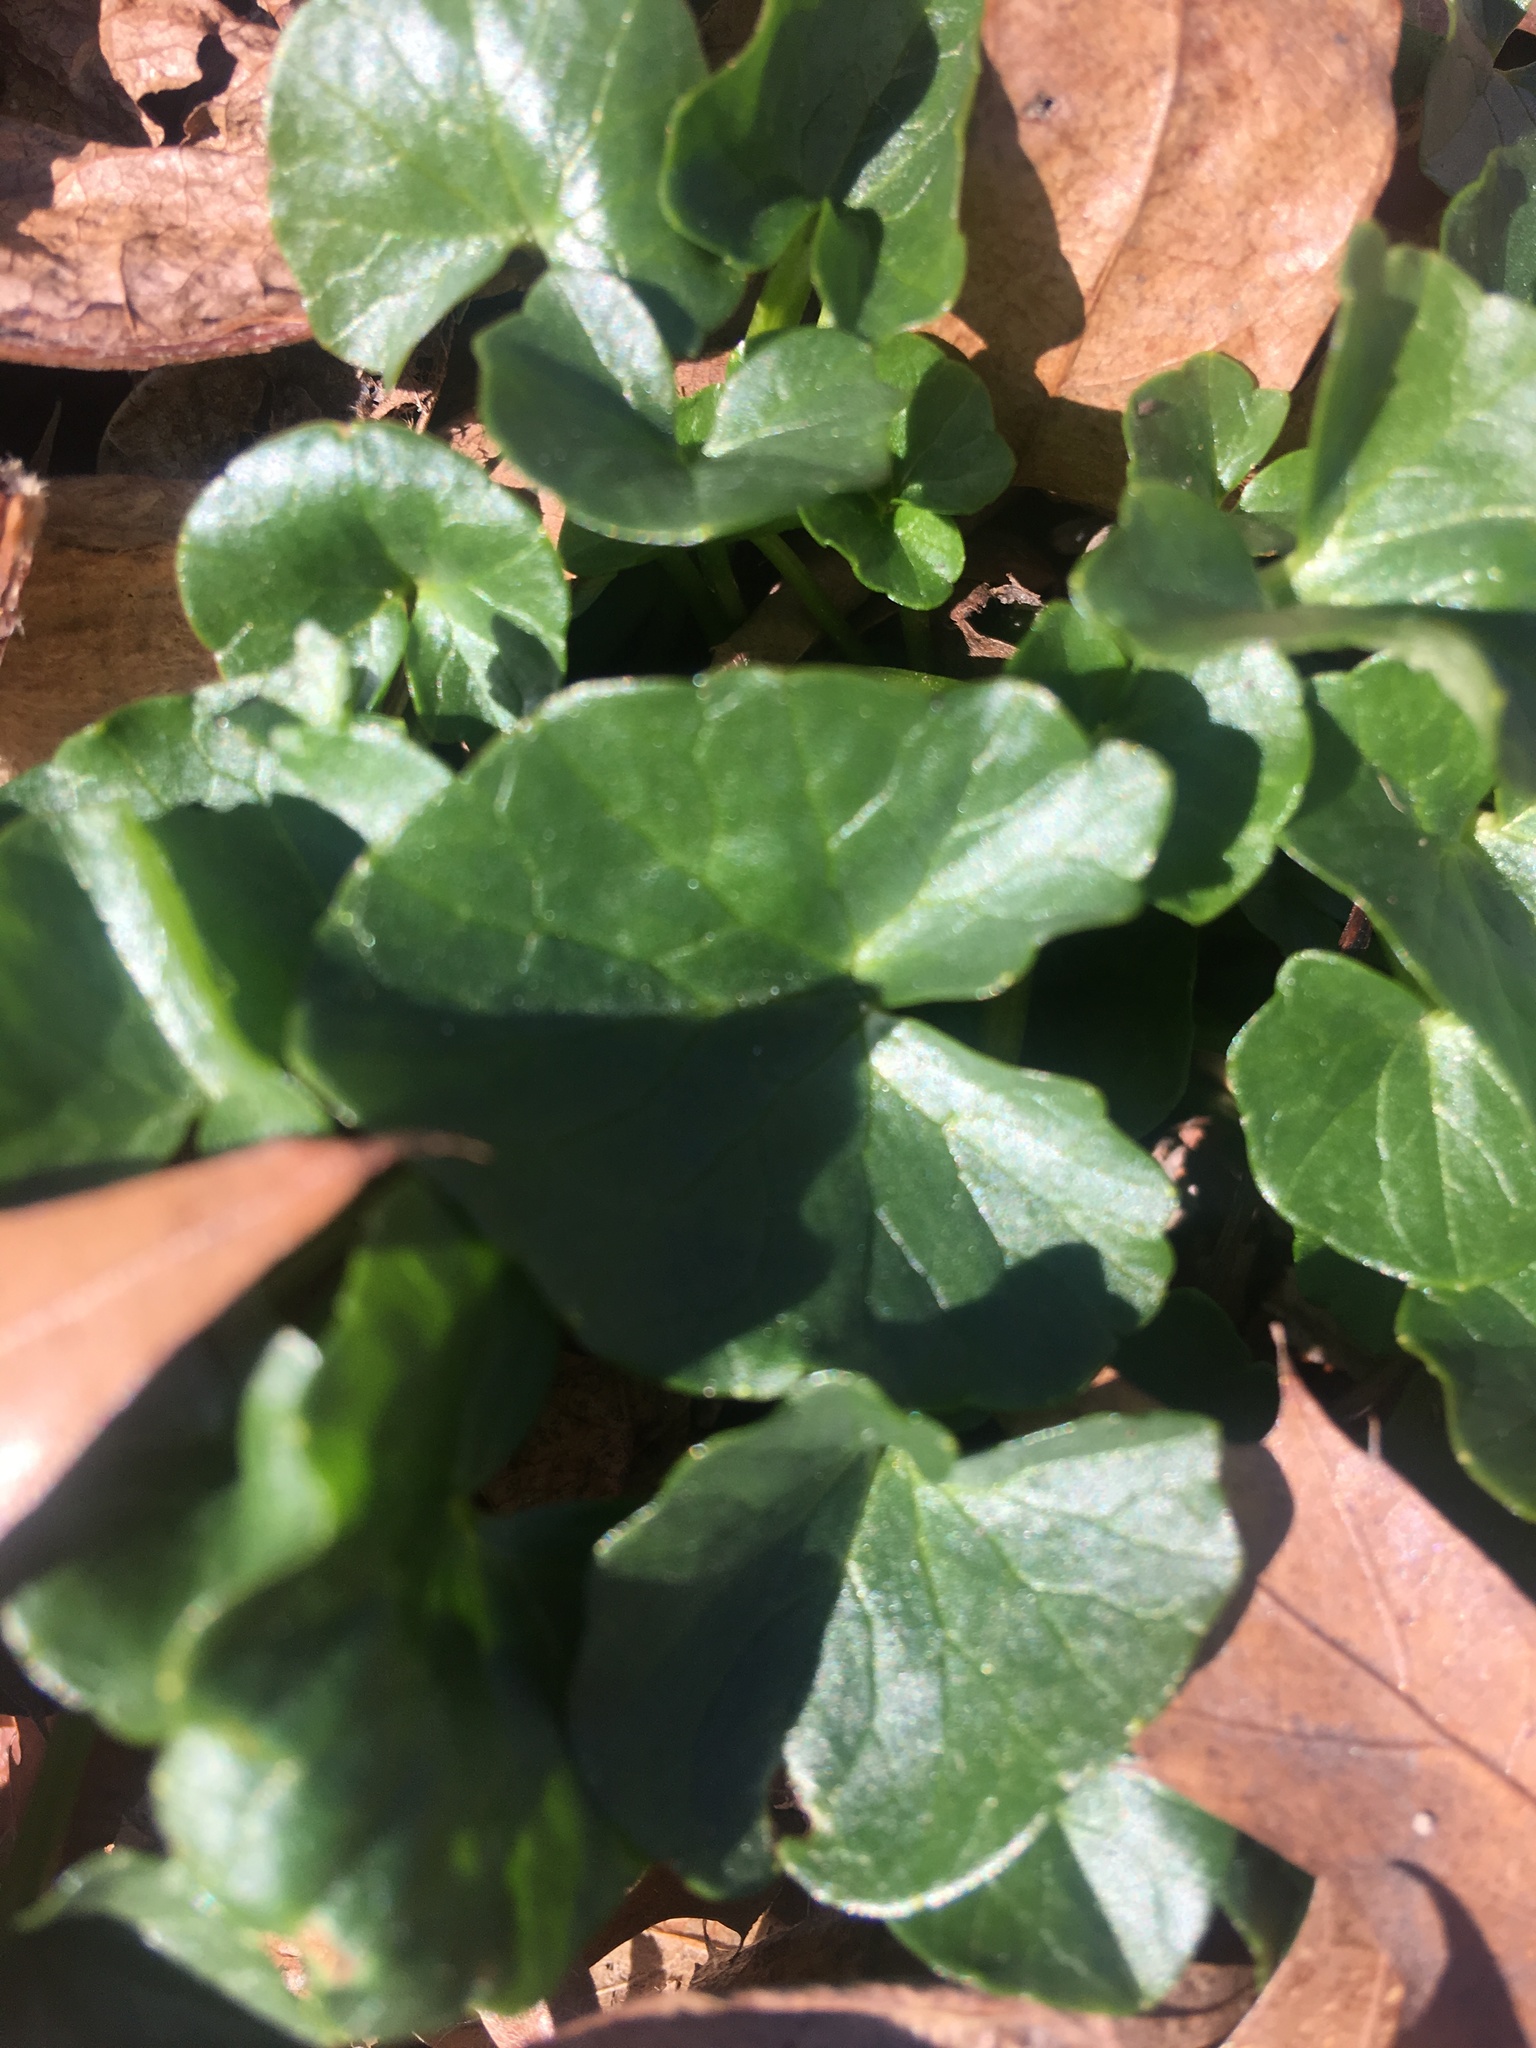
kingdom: Plantae
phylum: Tracheophyta
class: Magnoliopsida
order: Ranunculales
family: Ranunculaceae
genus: Ficaria
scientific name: Ficaria verna
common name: Lesser celandine
